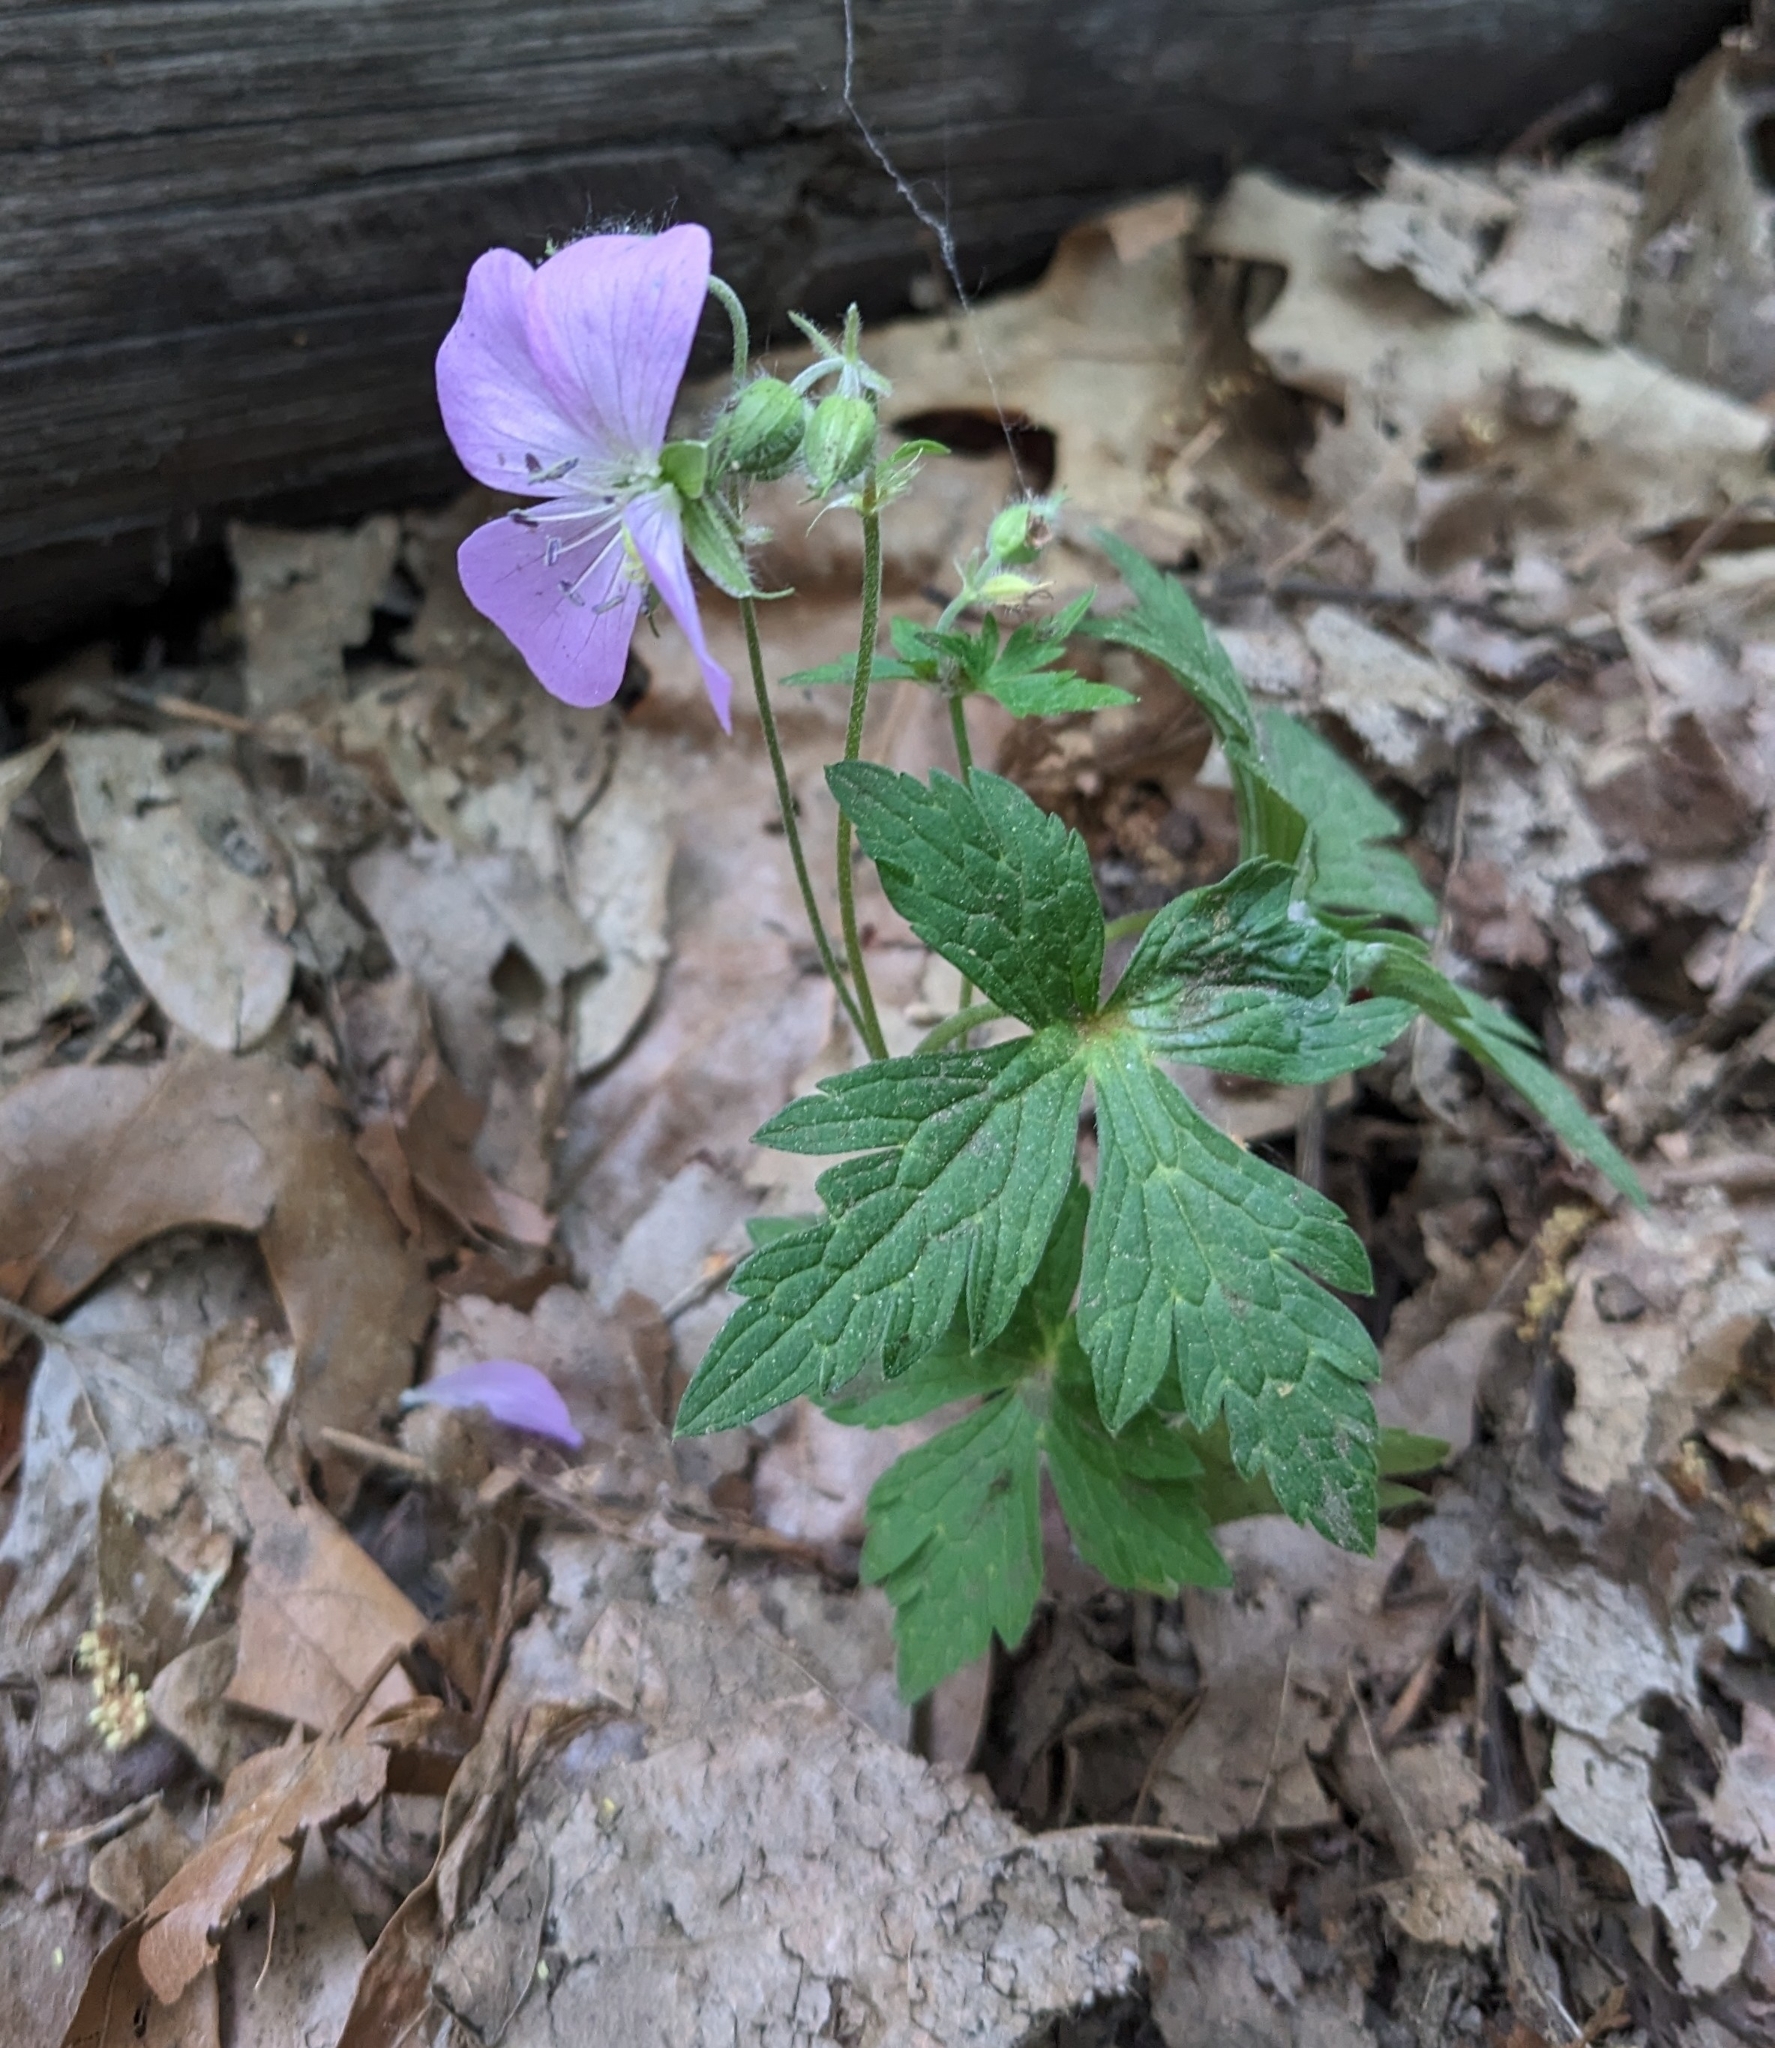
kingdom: Plantae
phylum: Tracheophyta
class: Magnoliopsida
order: Geraniales
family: Geraniaceae
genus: Geranium
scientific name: Geranium maculatum
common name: Spotted geranium
